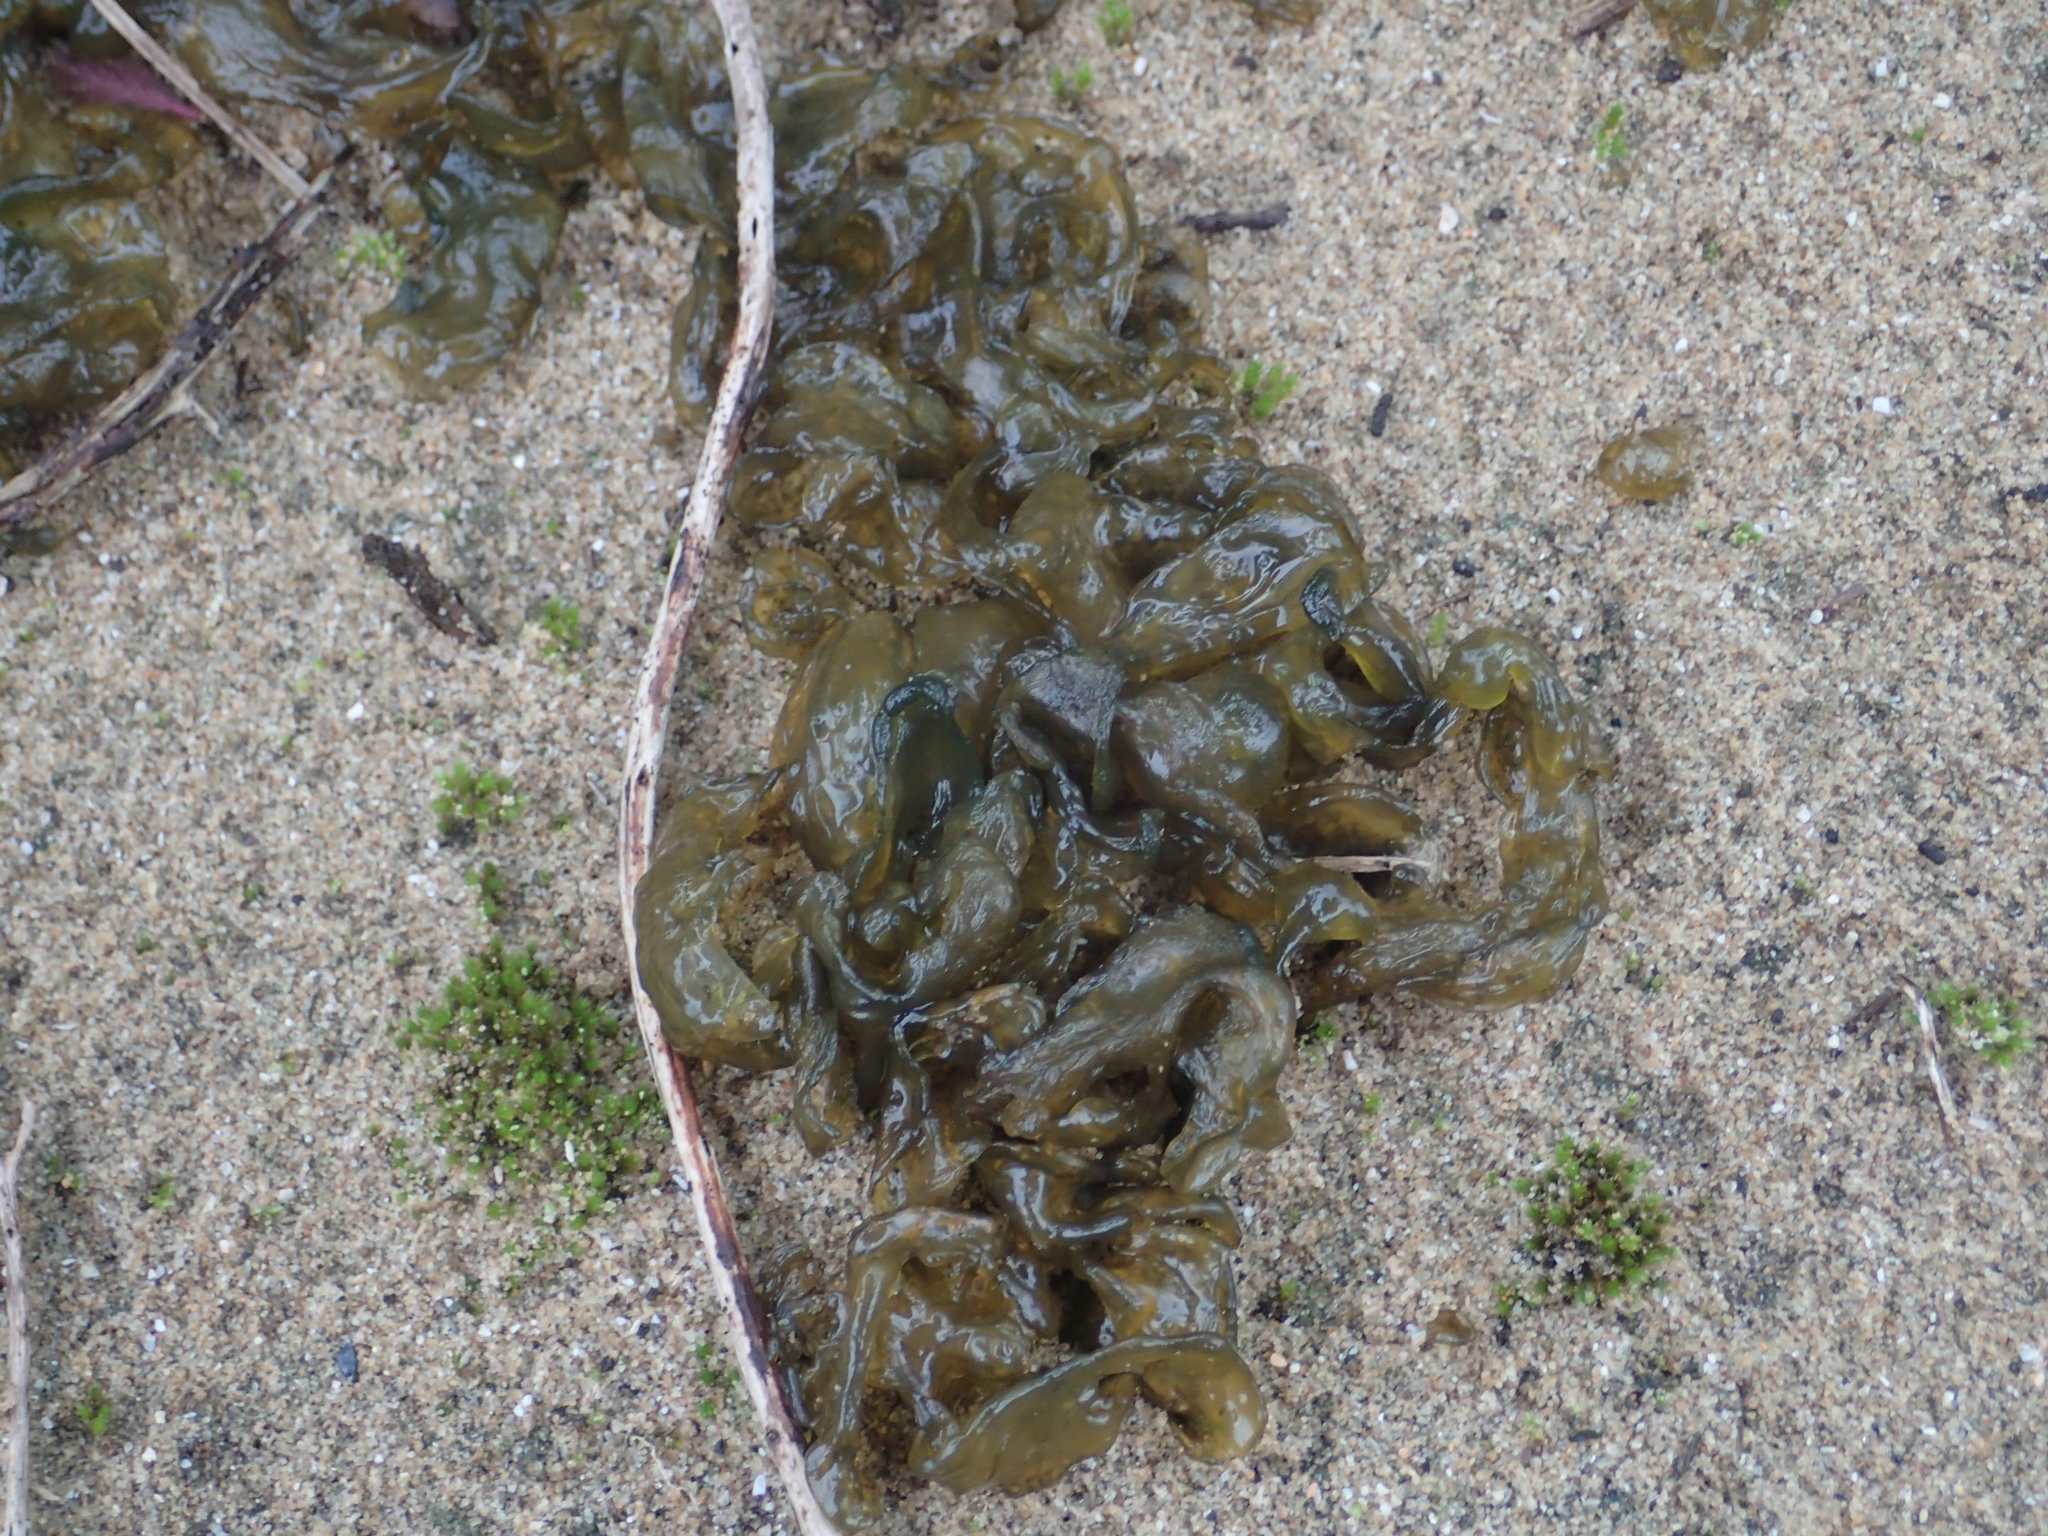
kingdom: Bacteria
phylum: Cyanobacteria
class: Cyanobacteriia
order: Cyanobacteriales
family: Nostocaceae
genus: Nostoc
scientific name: Nostoc commune
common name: Star jelly
